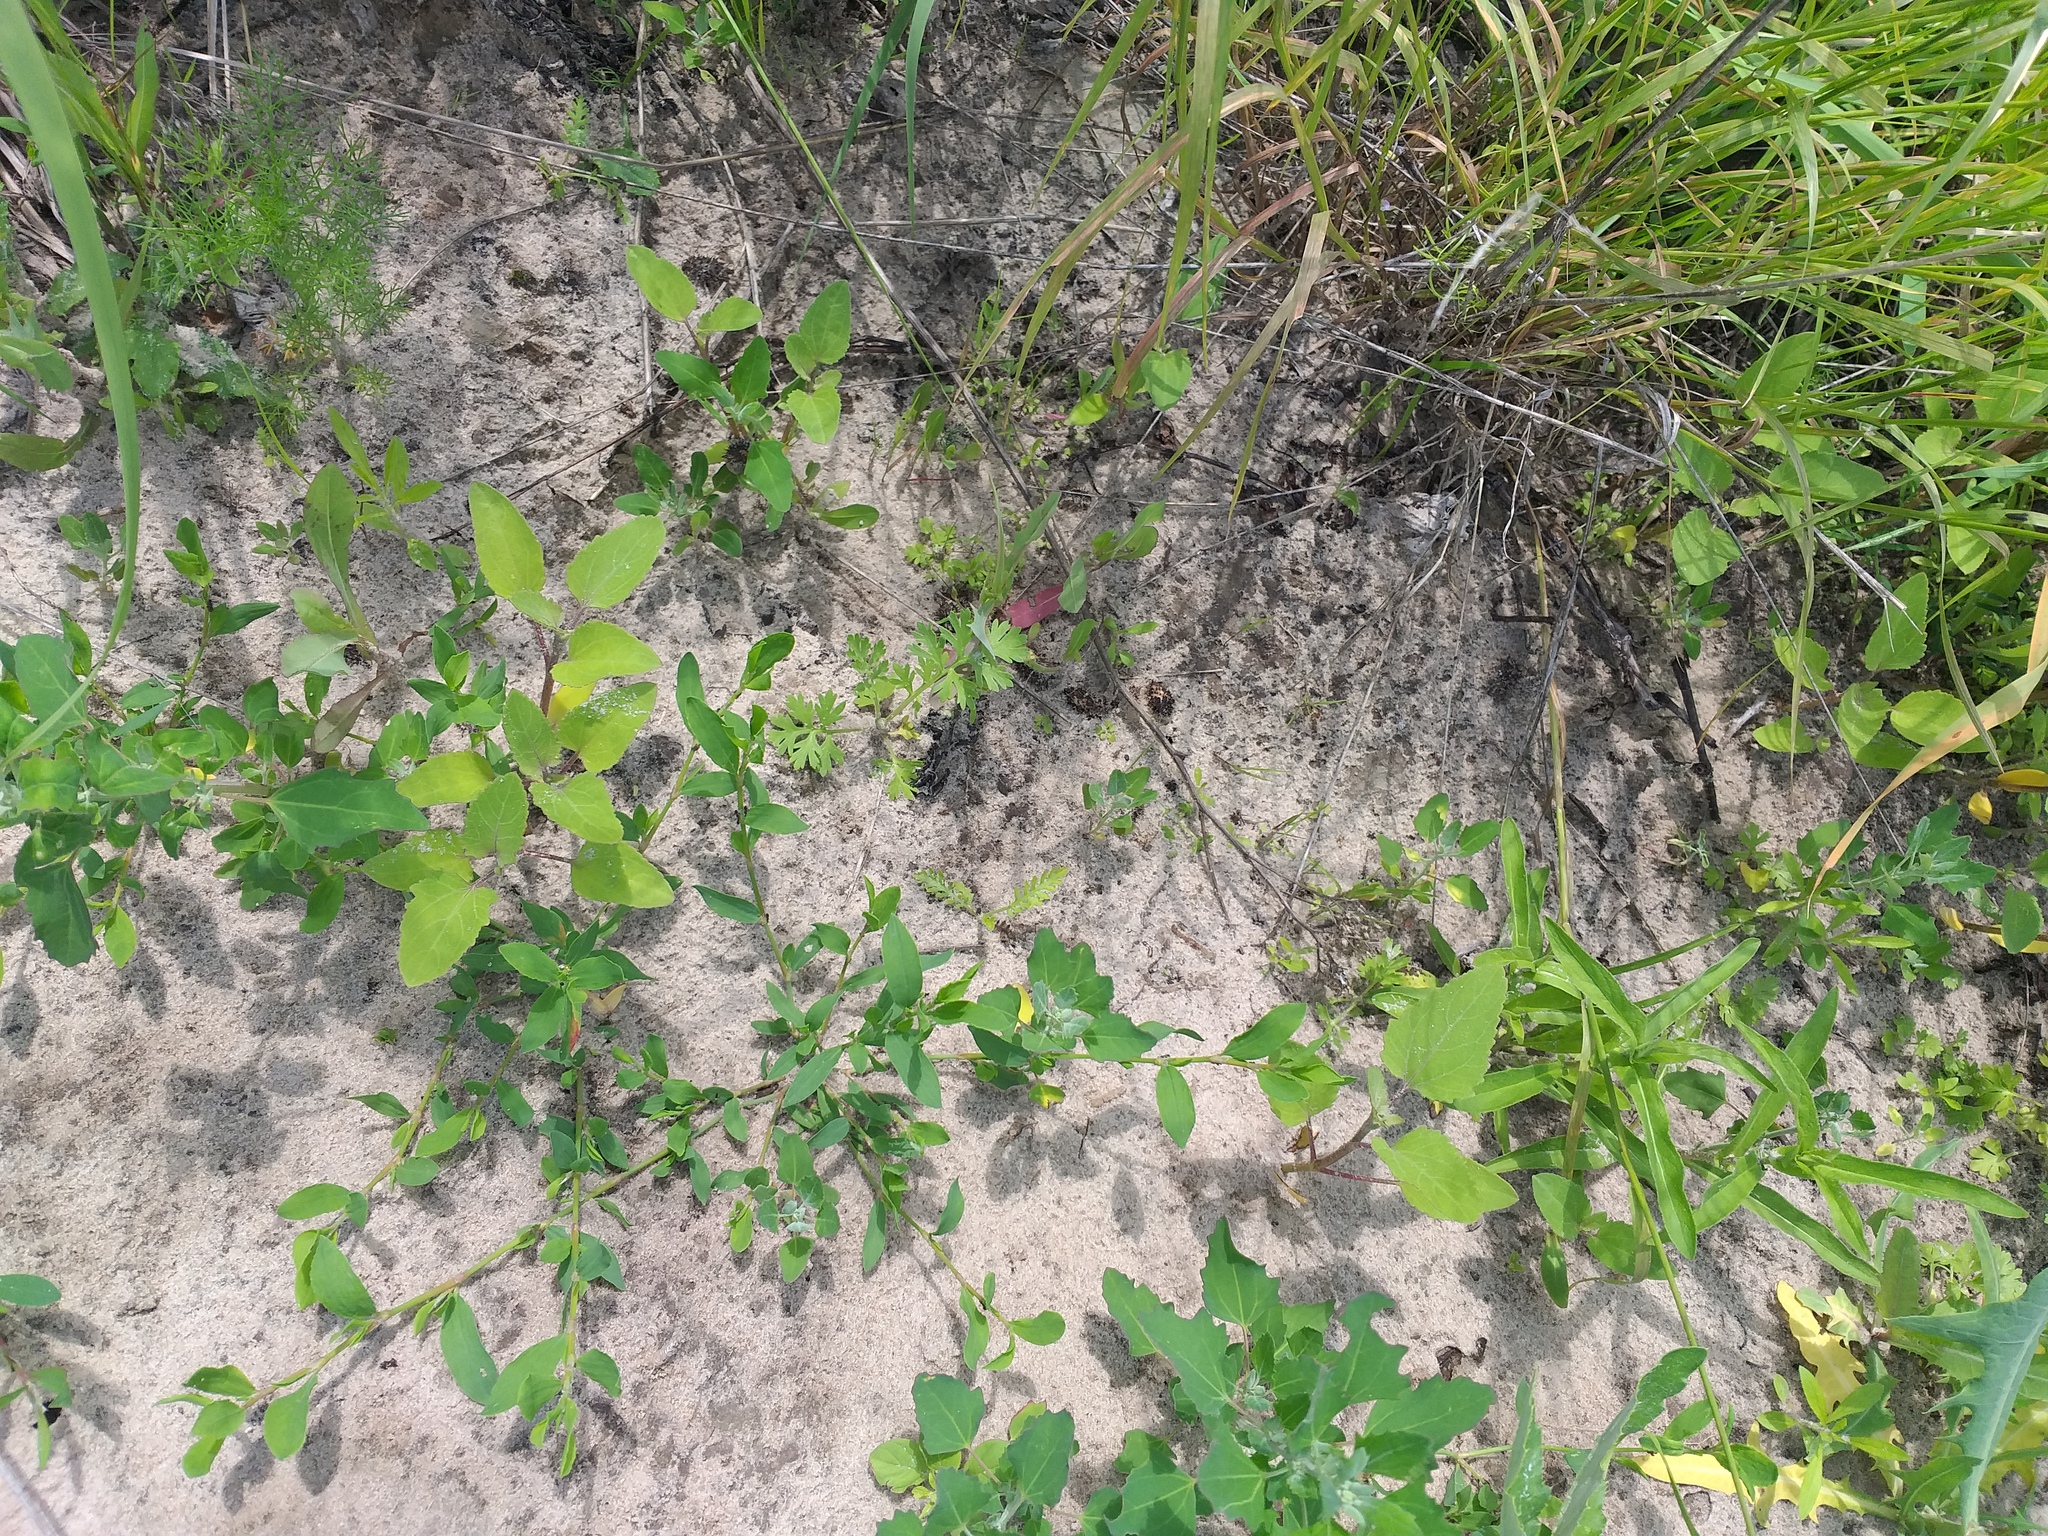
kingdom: Plantae
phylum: Tracheophyta
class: Magnoliopsida
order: Asterales
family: Asteraceae
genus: Xanthium
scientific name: Xanthium orientale
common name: Californian burr
